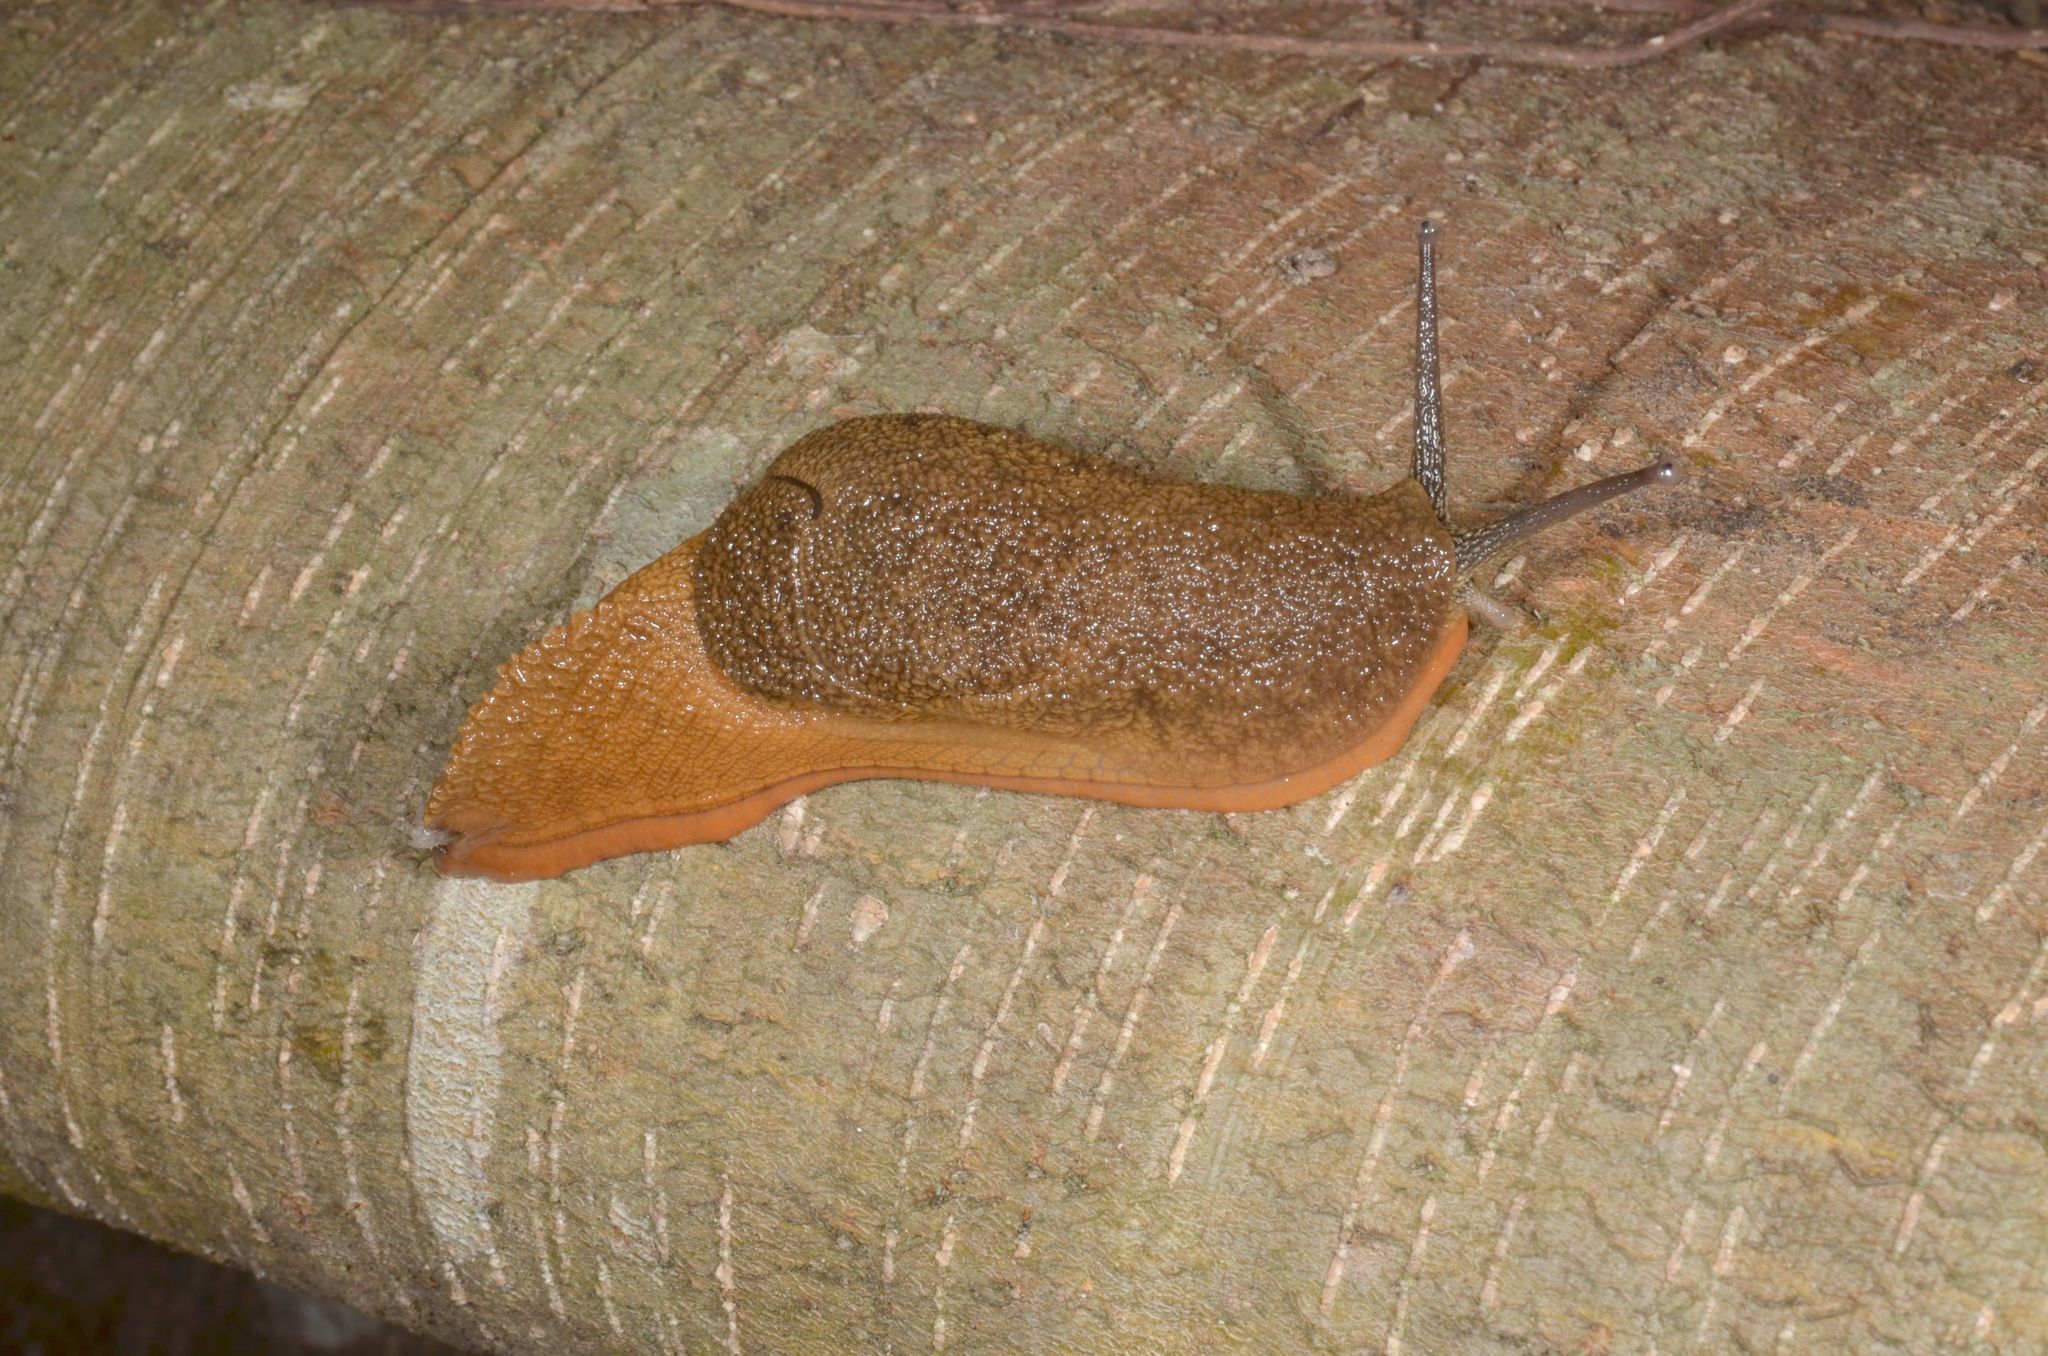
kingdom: Animalia
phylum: Mollusca
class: Gastropoda
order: Stylommatophora
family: Helicarionidae
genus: Austenia
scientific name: Austenia
